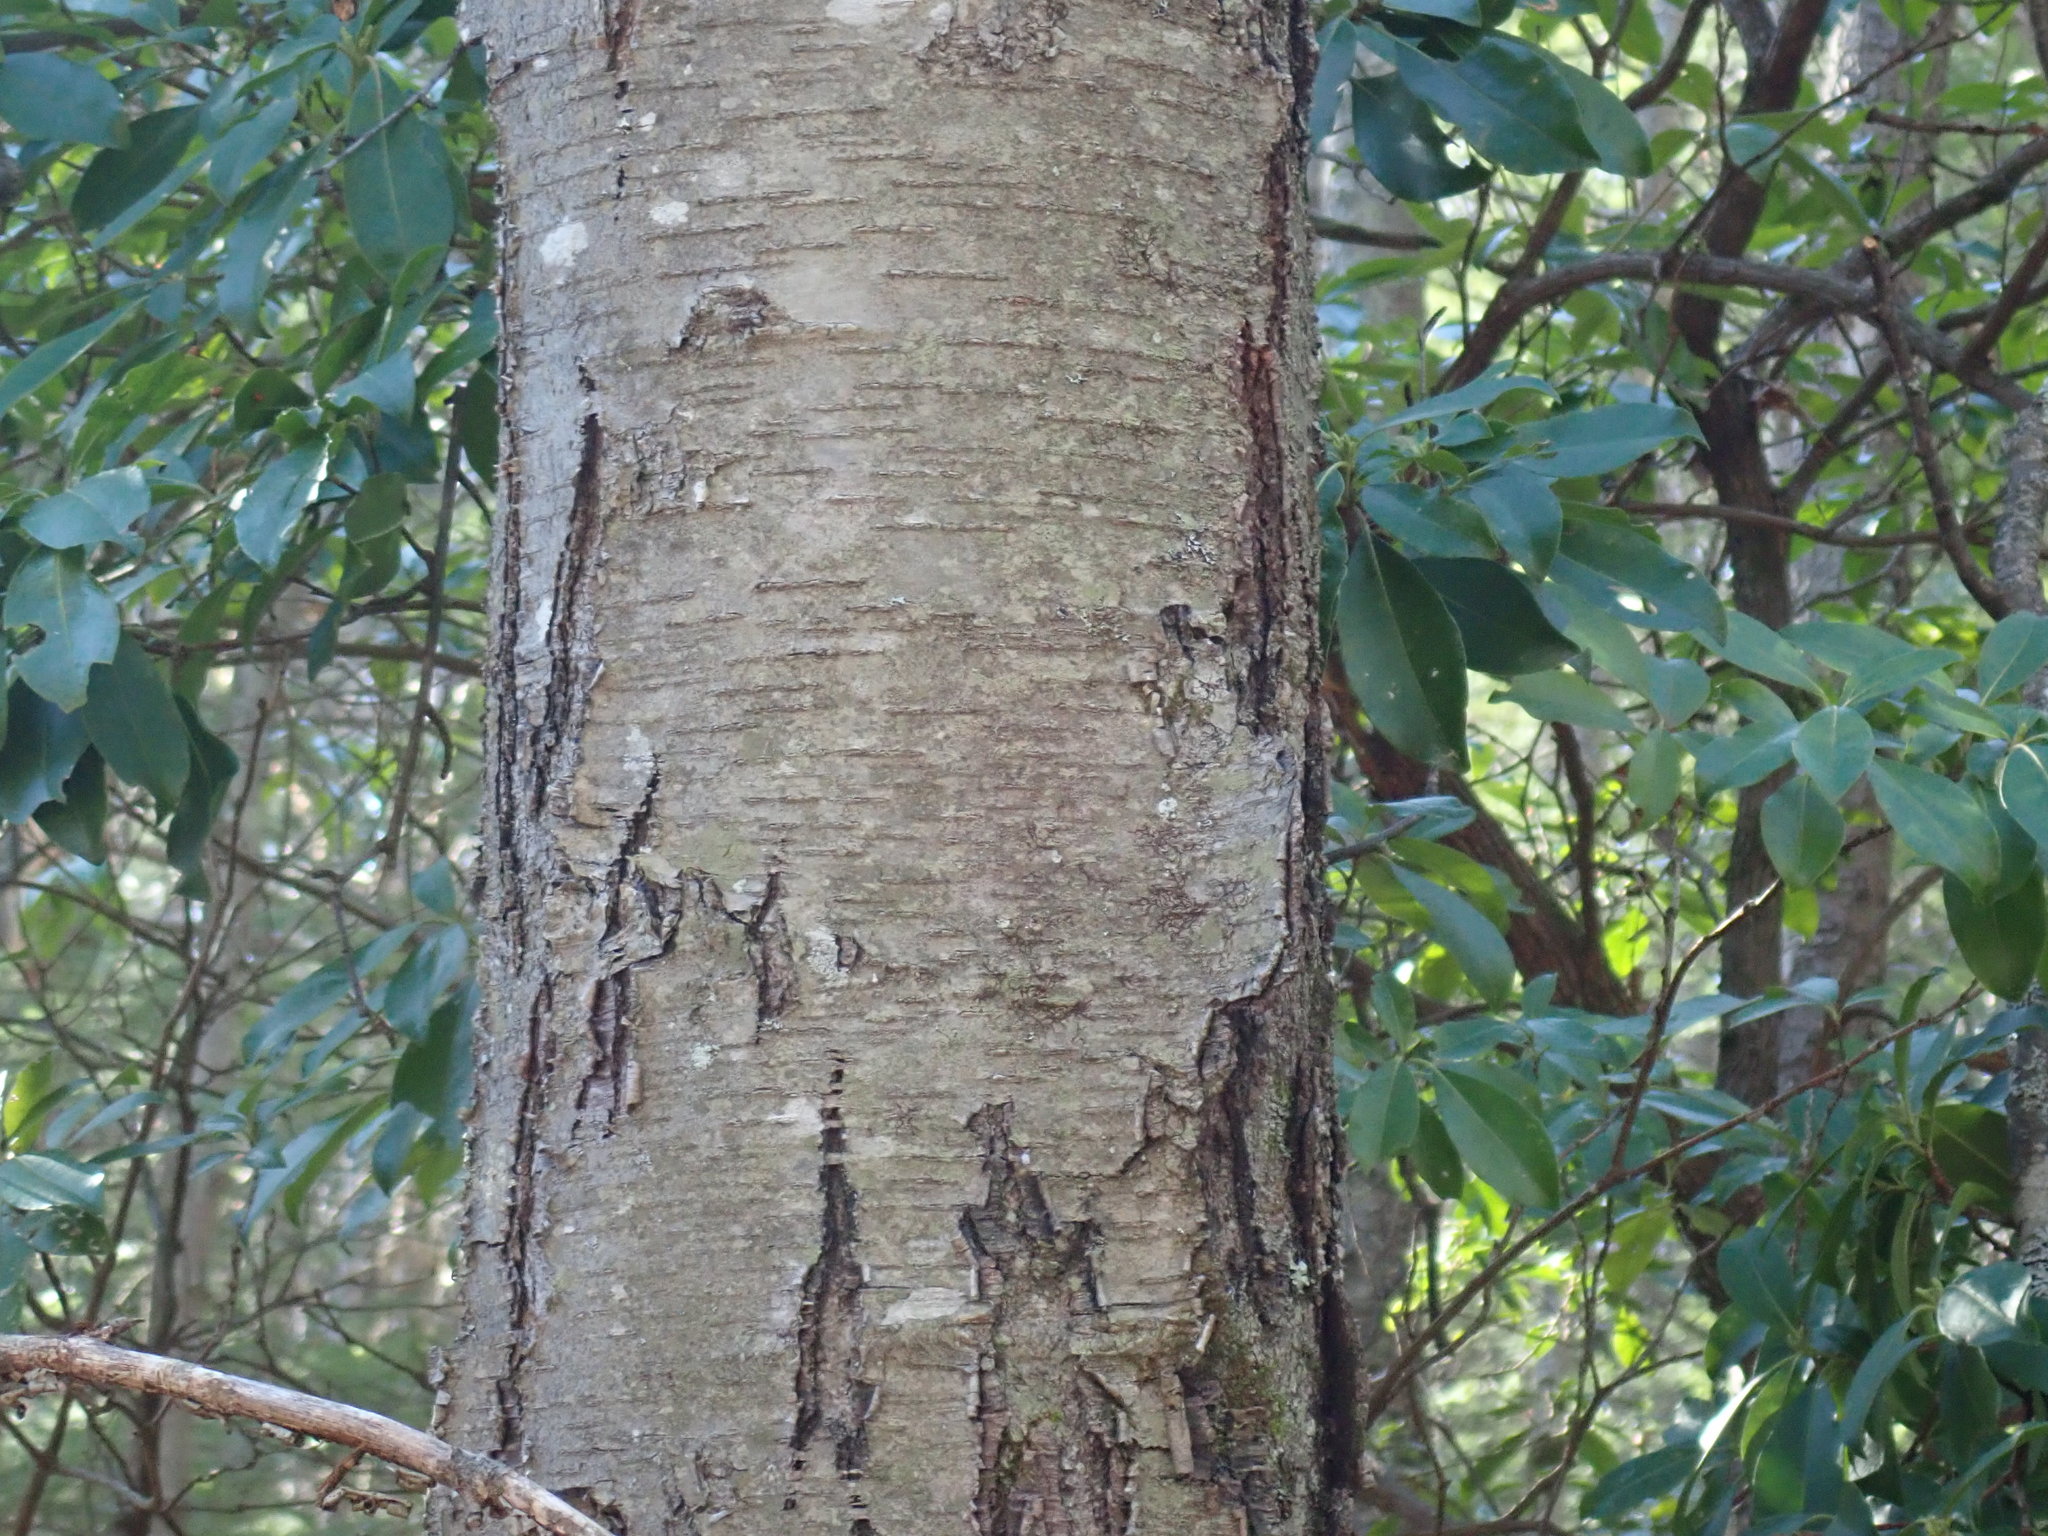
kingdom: Plantae
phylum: Tracheophyta
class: Magnoliopsida
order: Fagales
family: Betulaceae
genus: Betula
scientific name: Betula lenta
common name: Black birch
